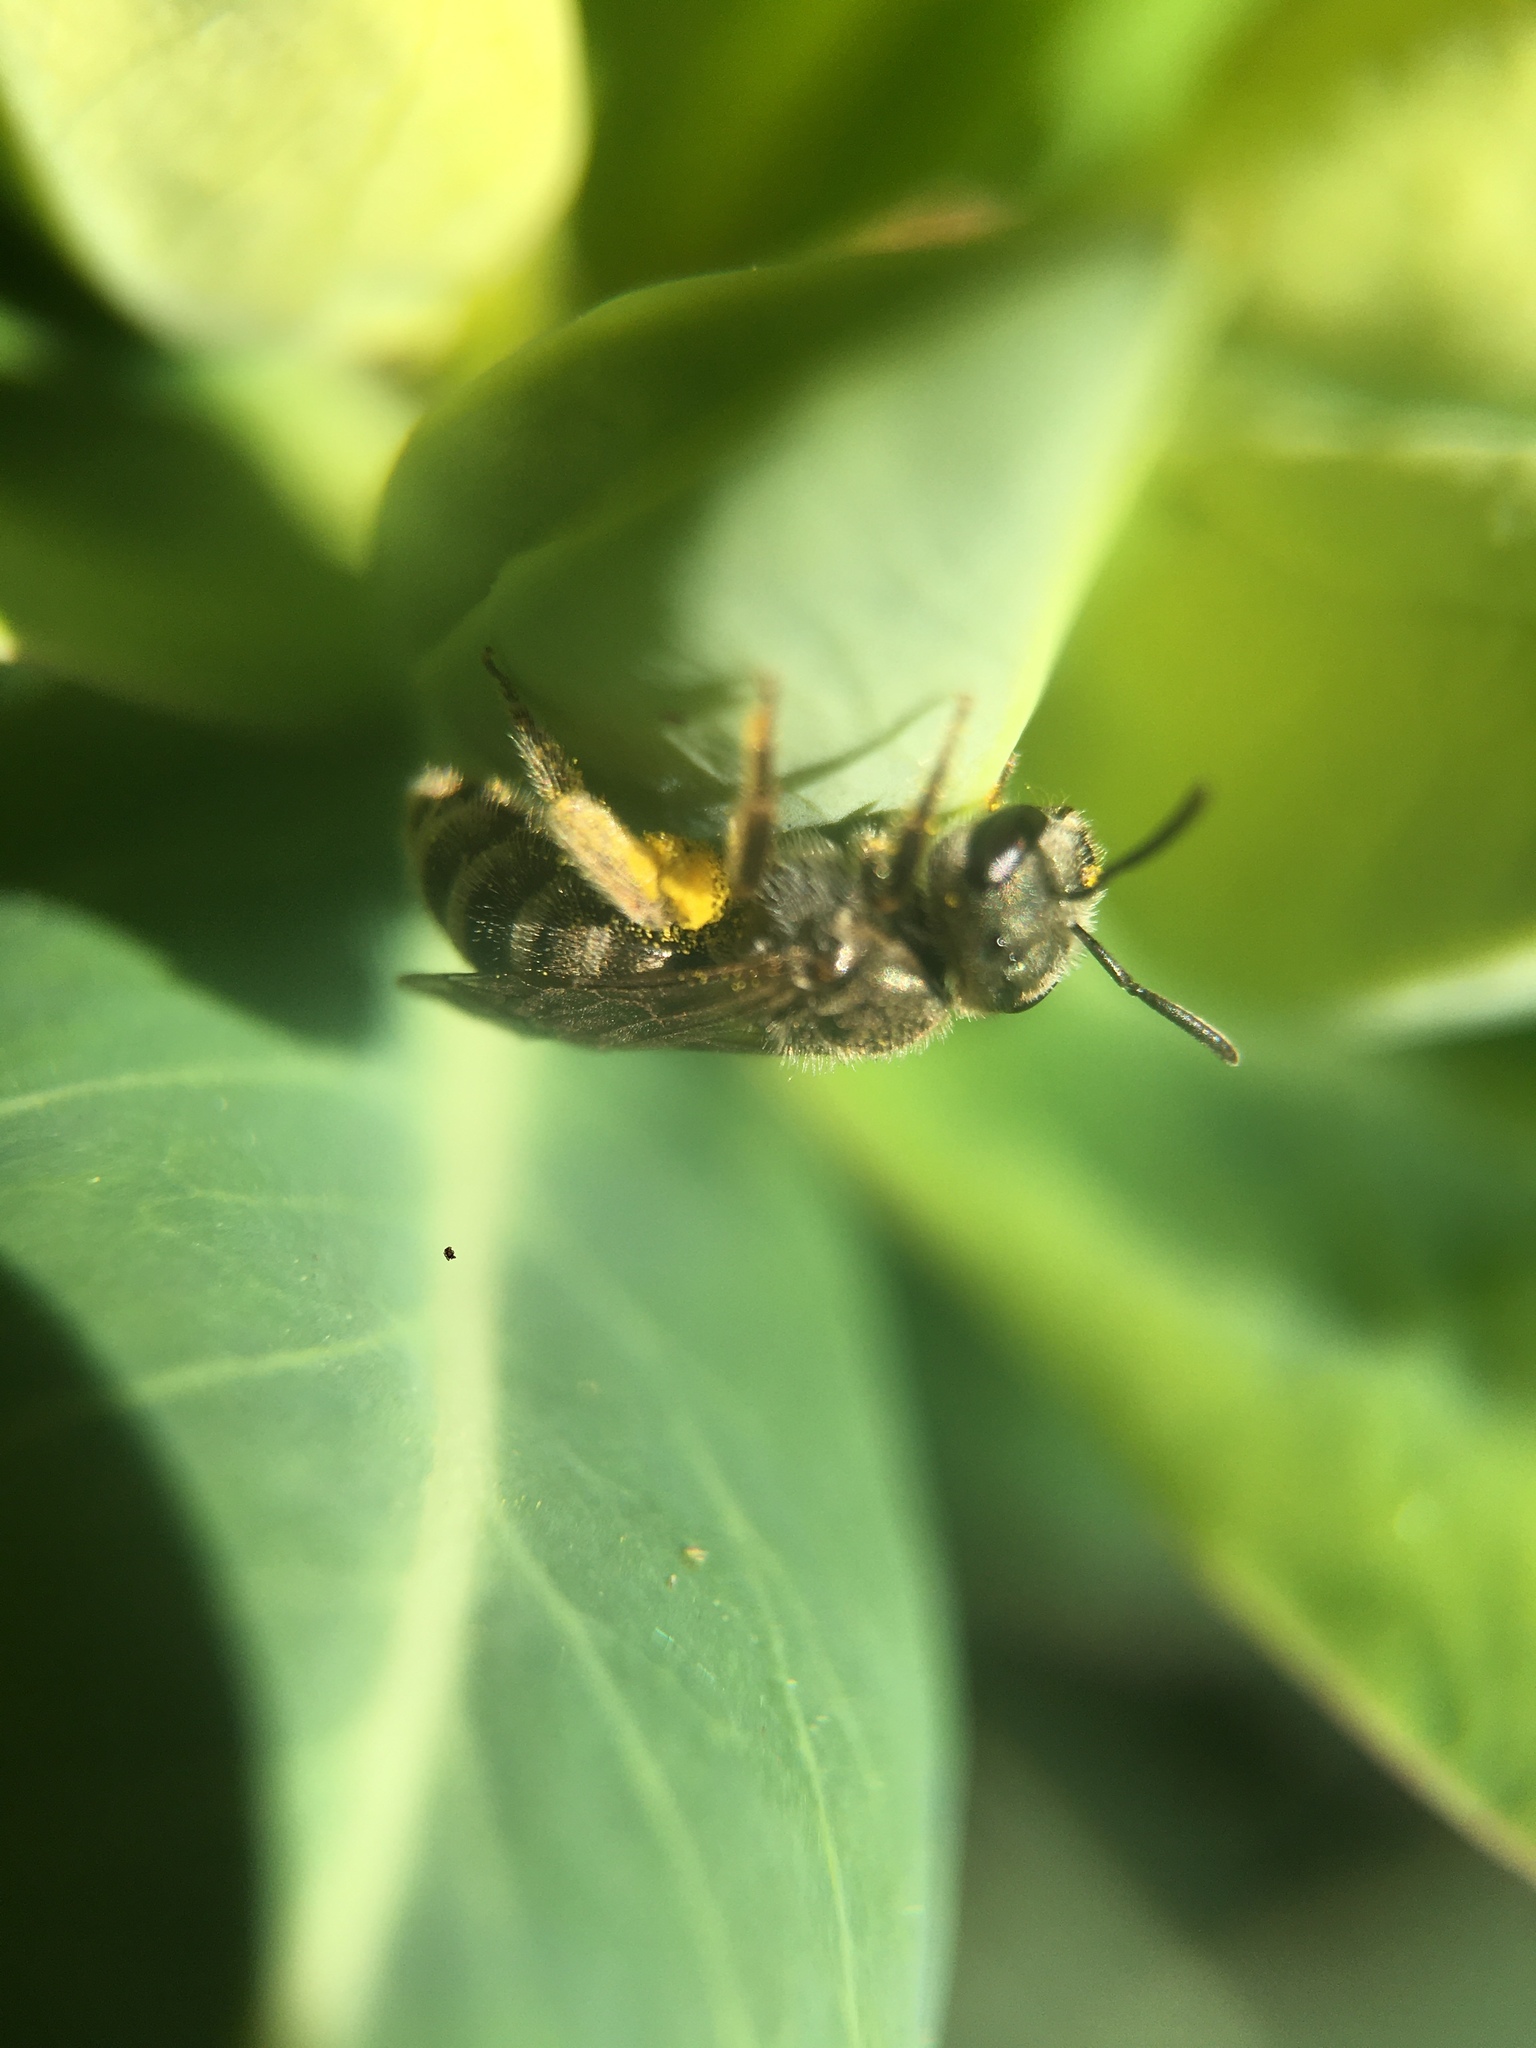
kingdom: Animalia
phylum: Arthropoda
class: Insecta
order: Hymenoptera
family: Halictidae
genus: Halictus
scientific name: Halictus tripartitus
